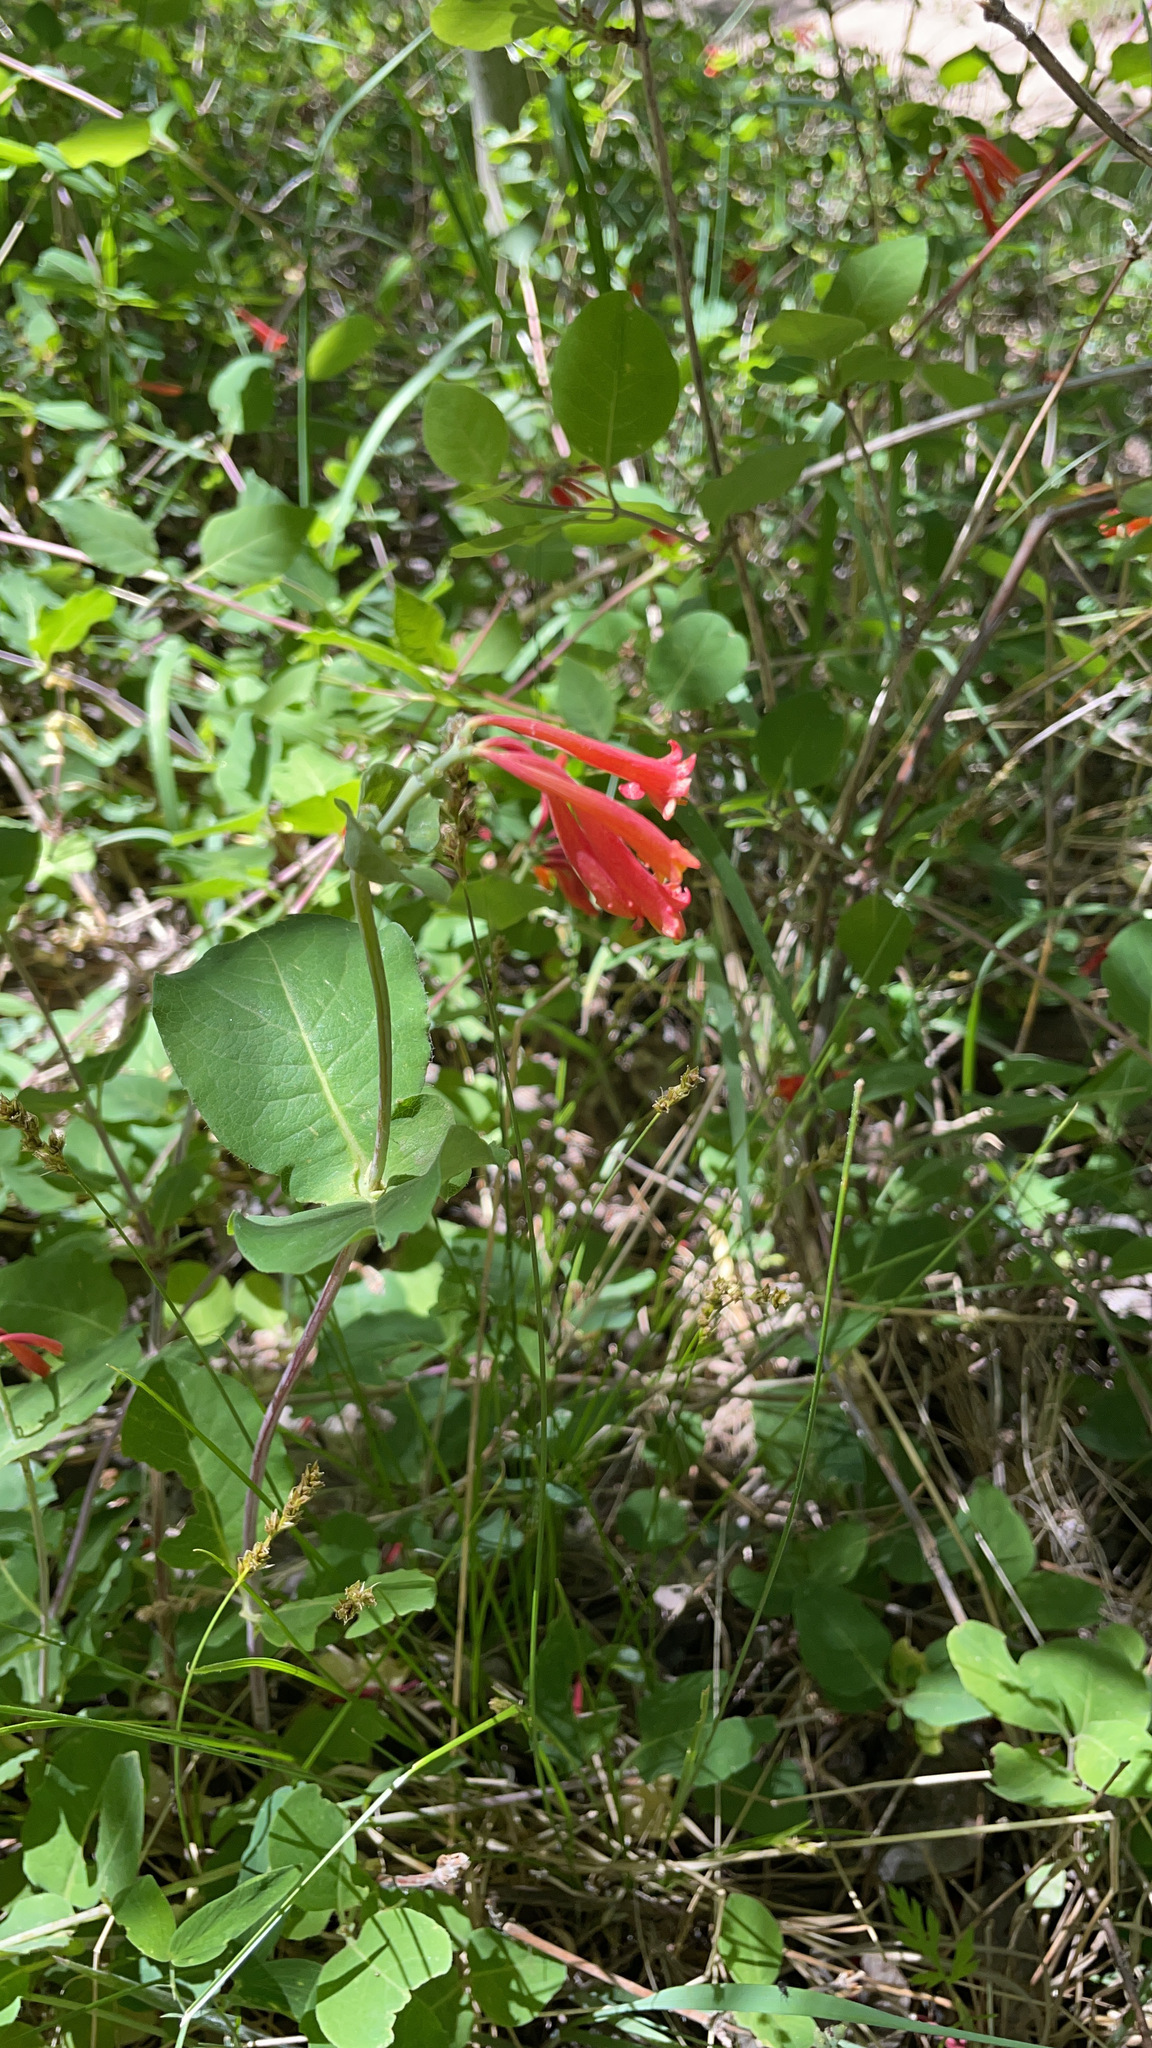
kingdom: Plantae
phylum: Tracheophyta
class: Magnoliopsida
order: Dipsacales
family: Caprifoliaceae
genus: Lonicera
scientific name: Lonicera arizonica
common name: Arizona honeysuckle
